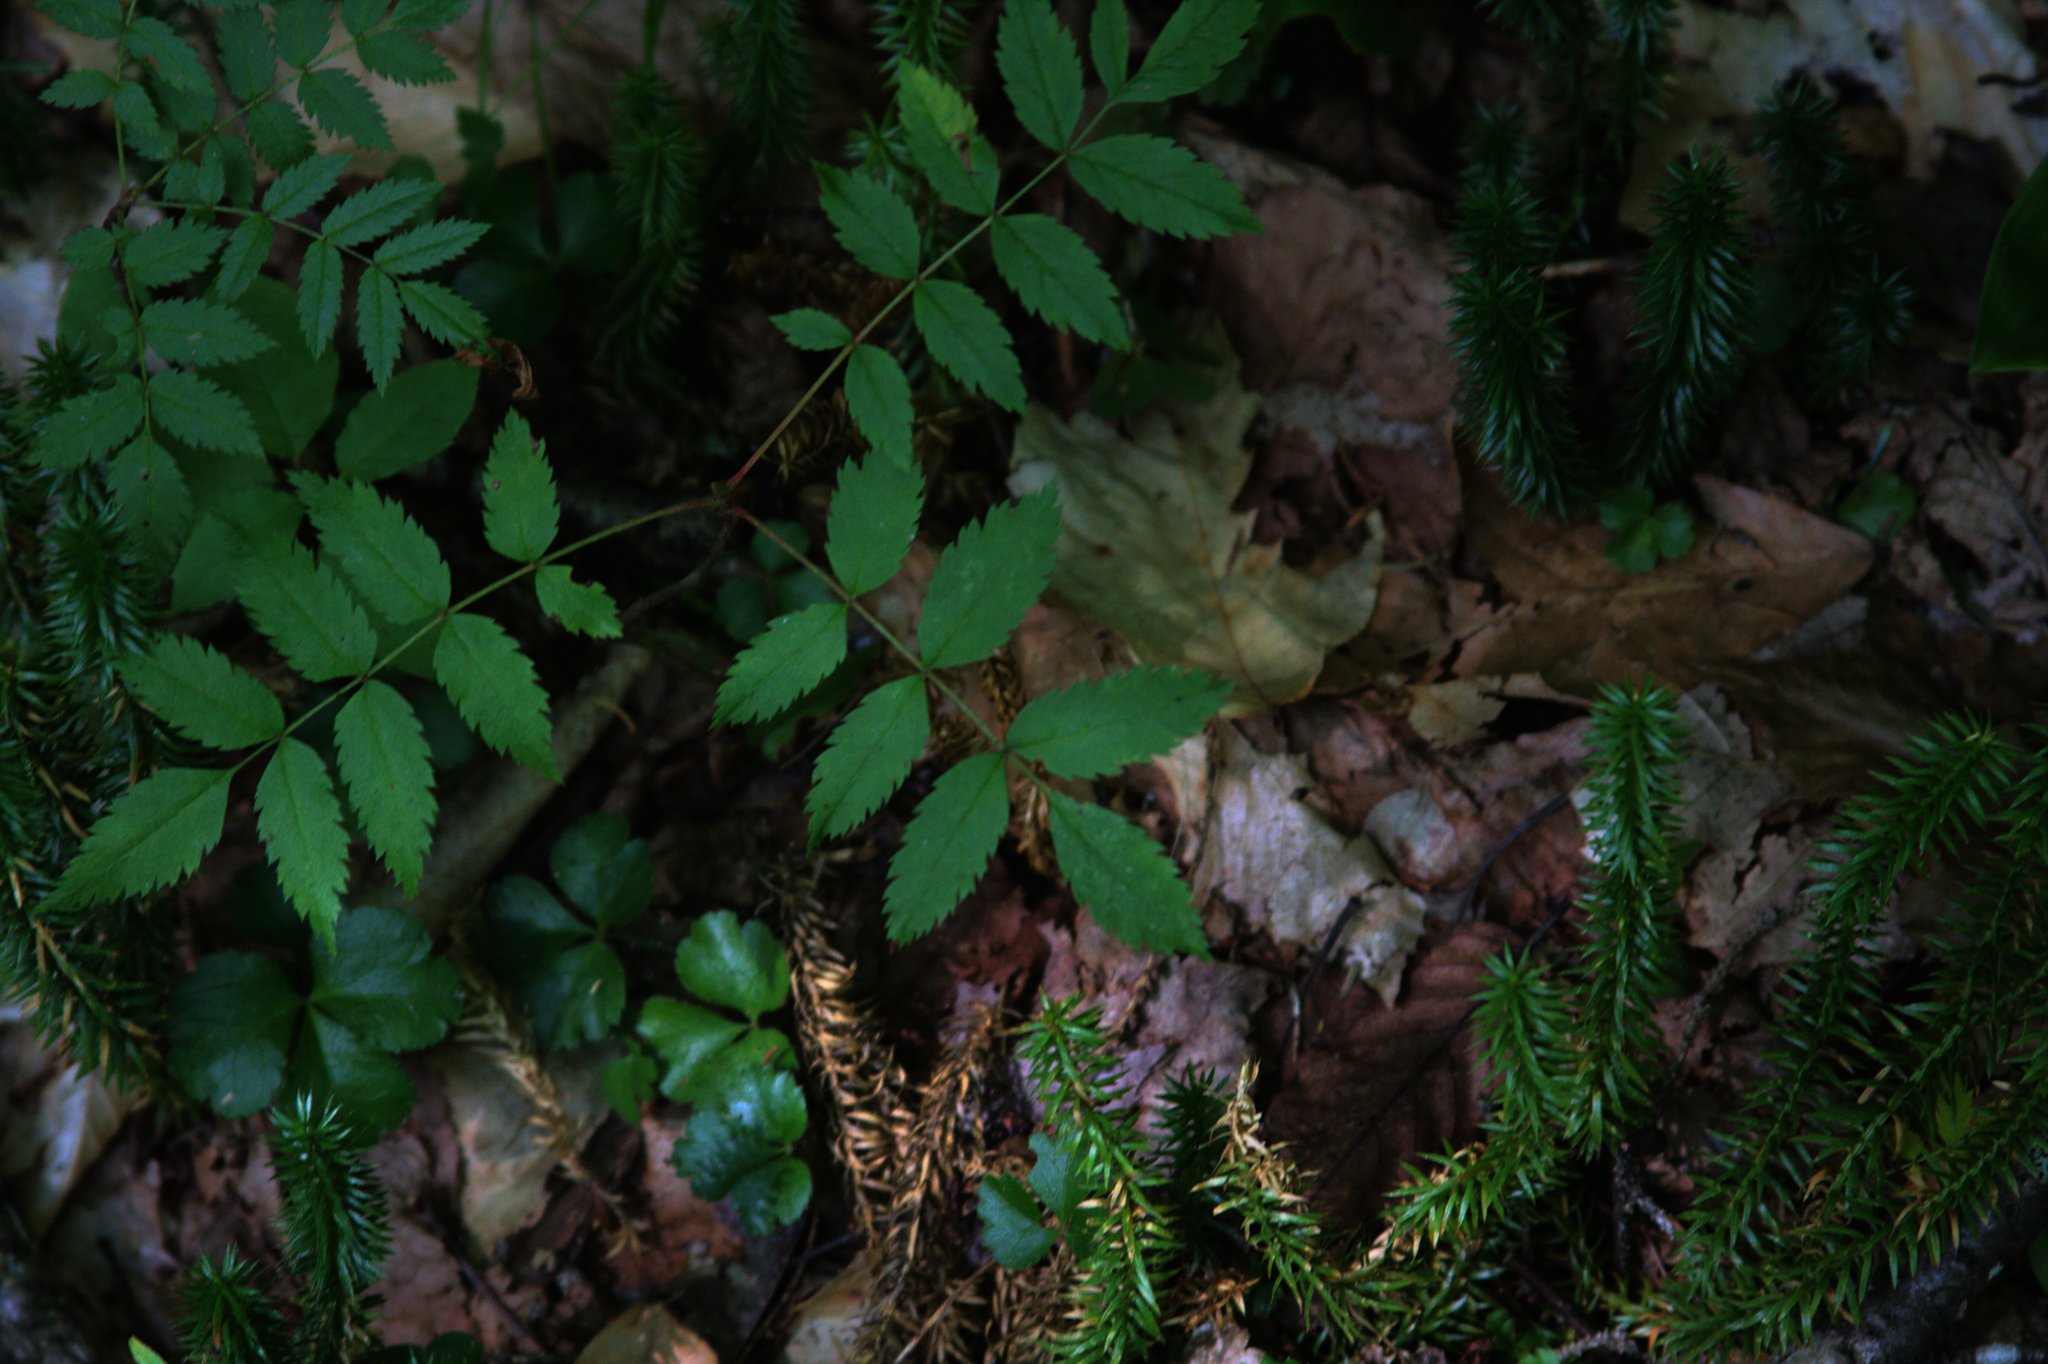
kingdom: Plantae
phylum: Tracheophyta
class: Magnoliopsida
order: Ranunculales
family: Ranunculaceae
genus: Coptis
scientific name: Coptis trifolia
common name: Canker-root
